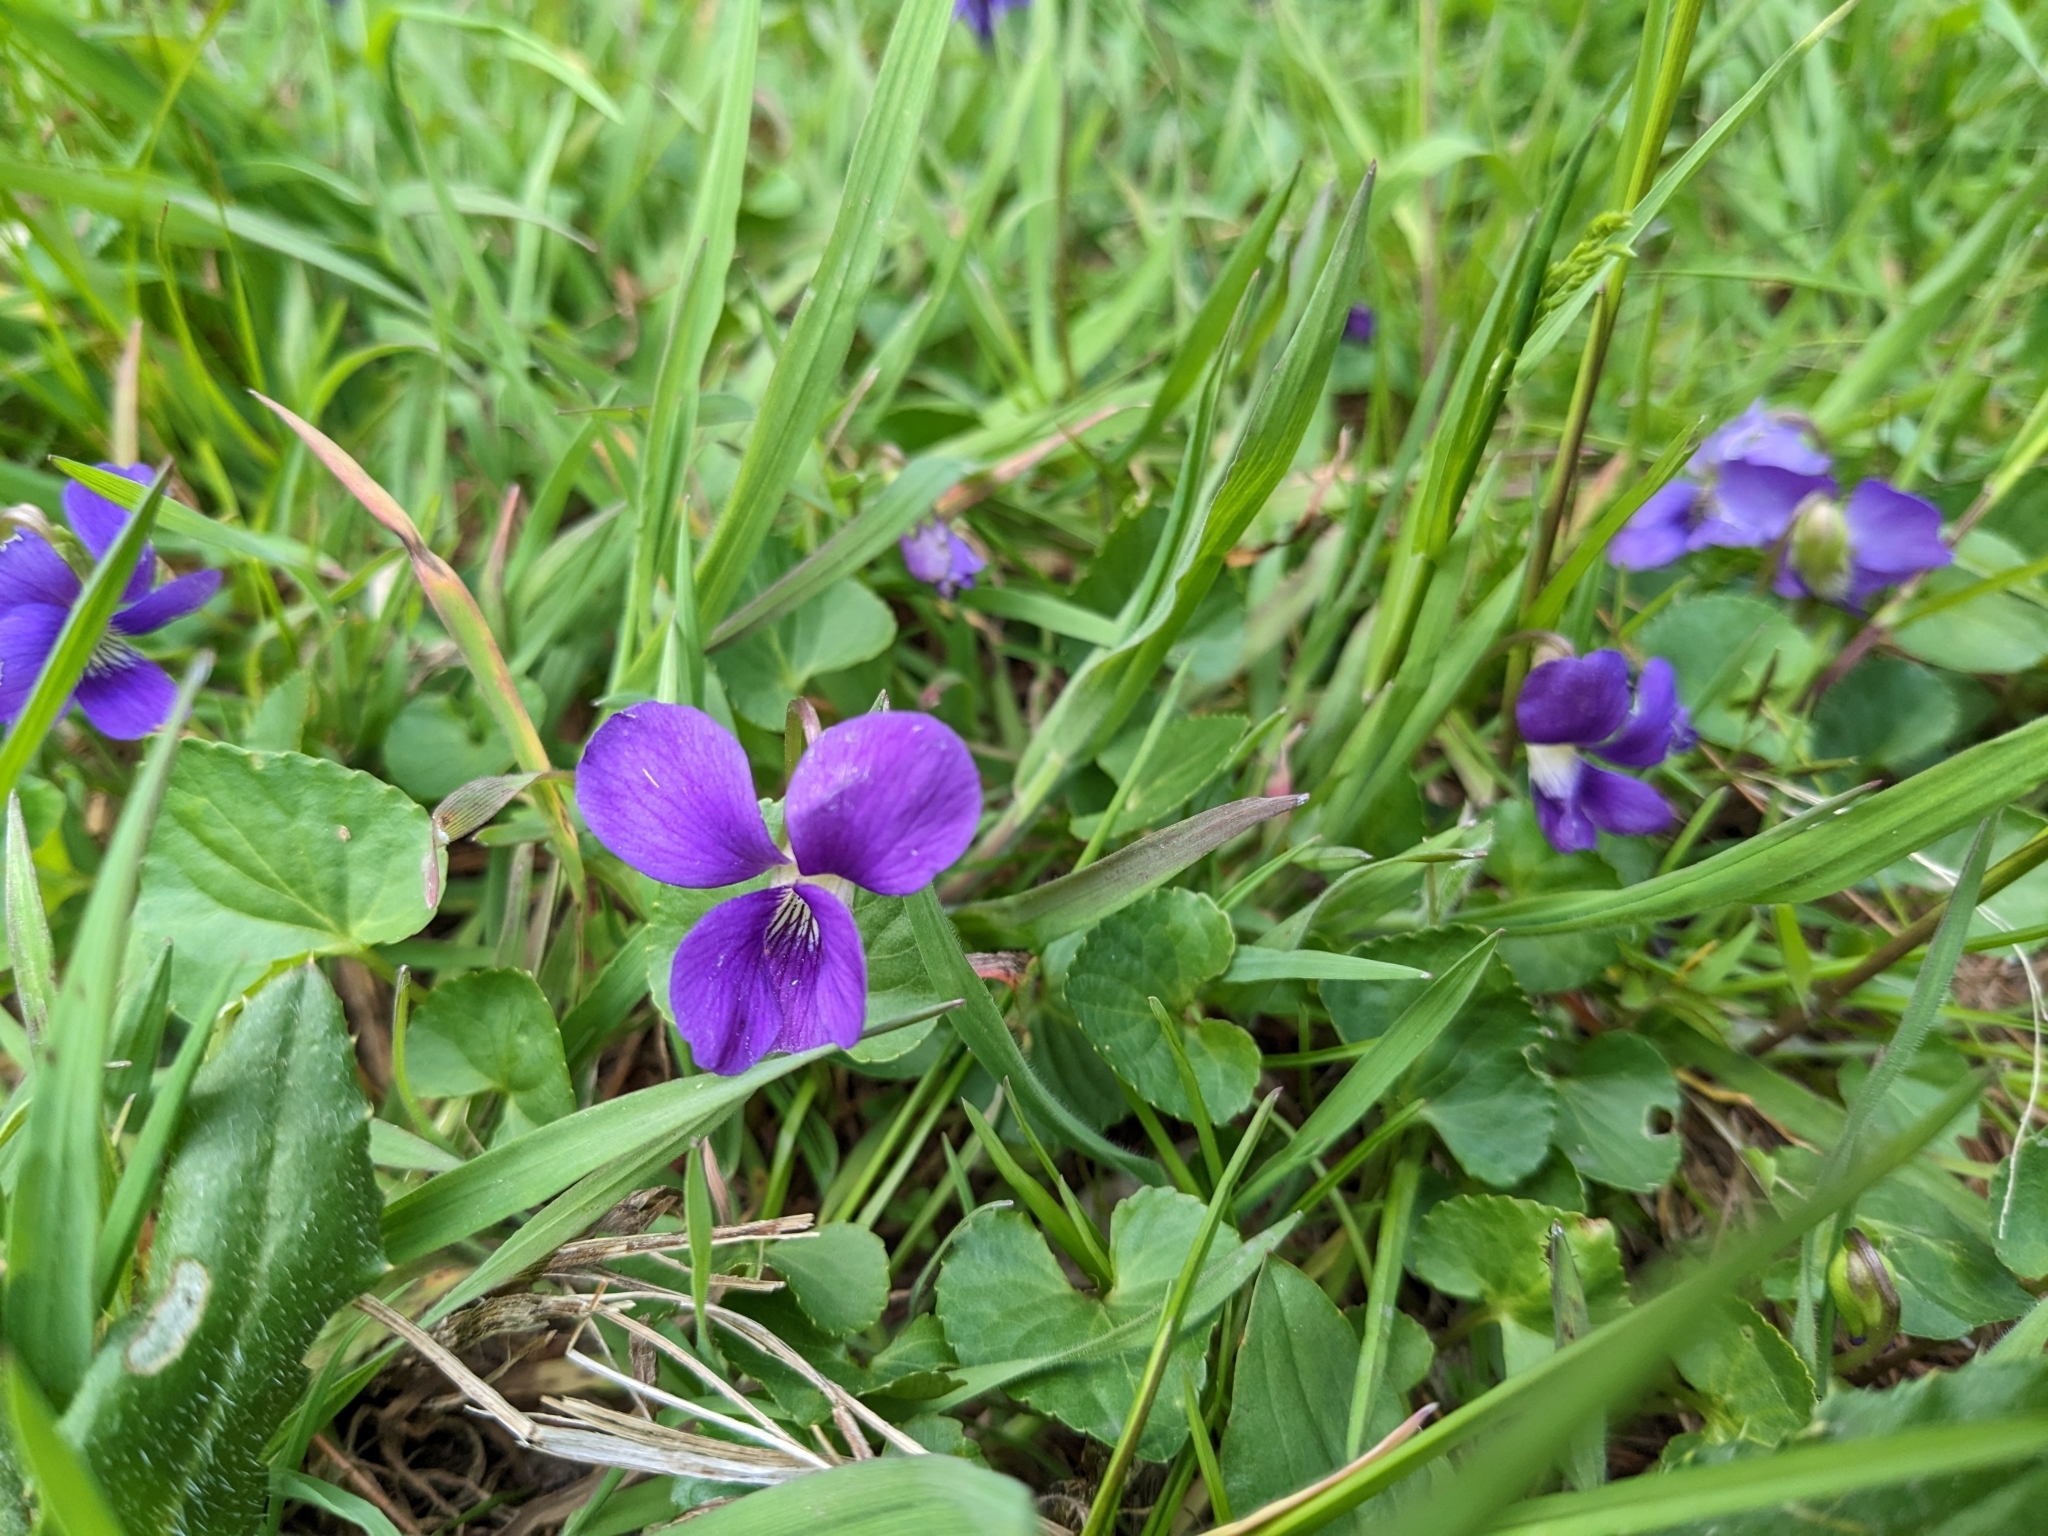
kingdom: Plantae
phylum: Tracheophyta
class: Magnoliopsida
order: Malpighiales
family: Violaceae
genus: Viola
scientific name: Viola sororia
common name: Dooryard violet
